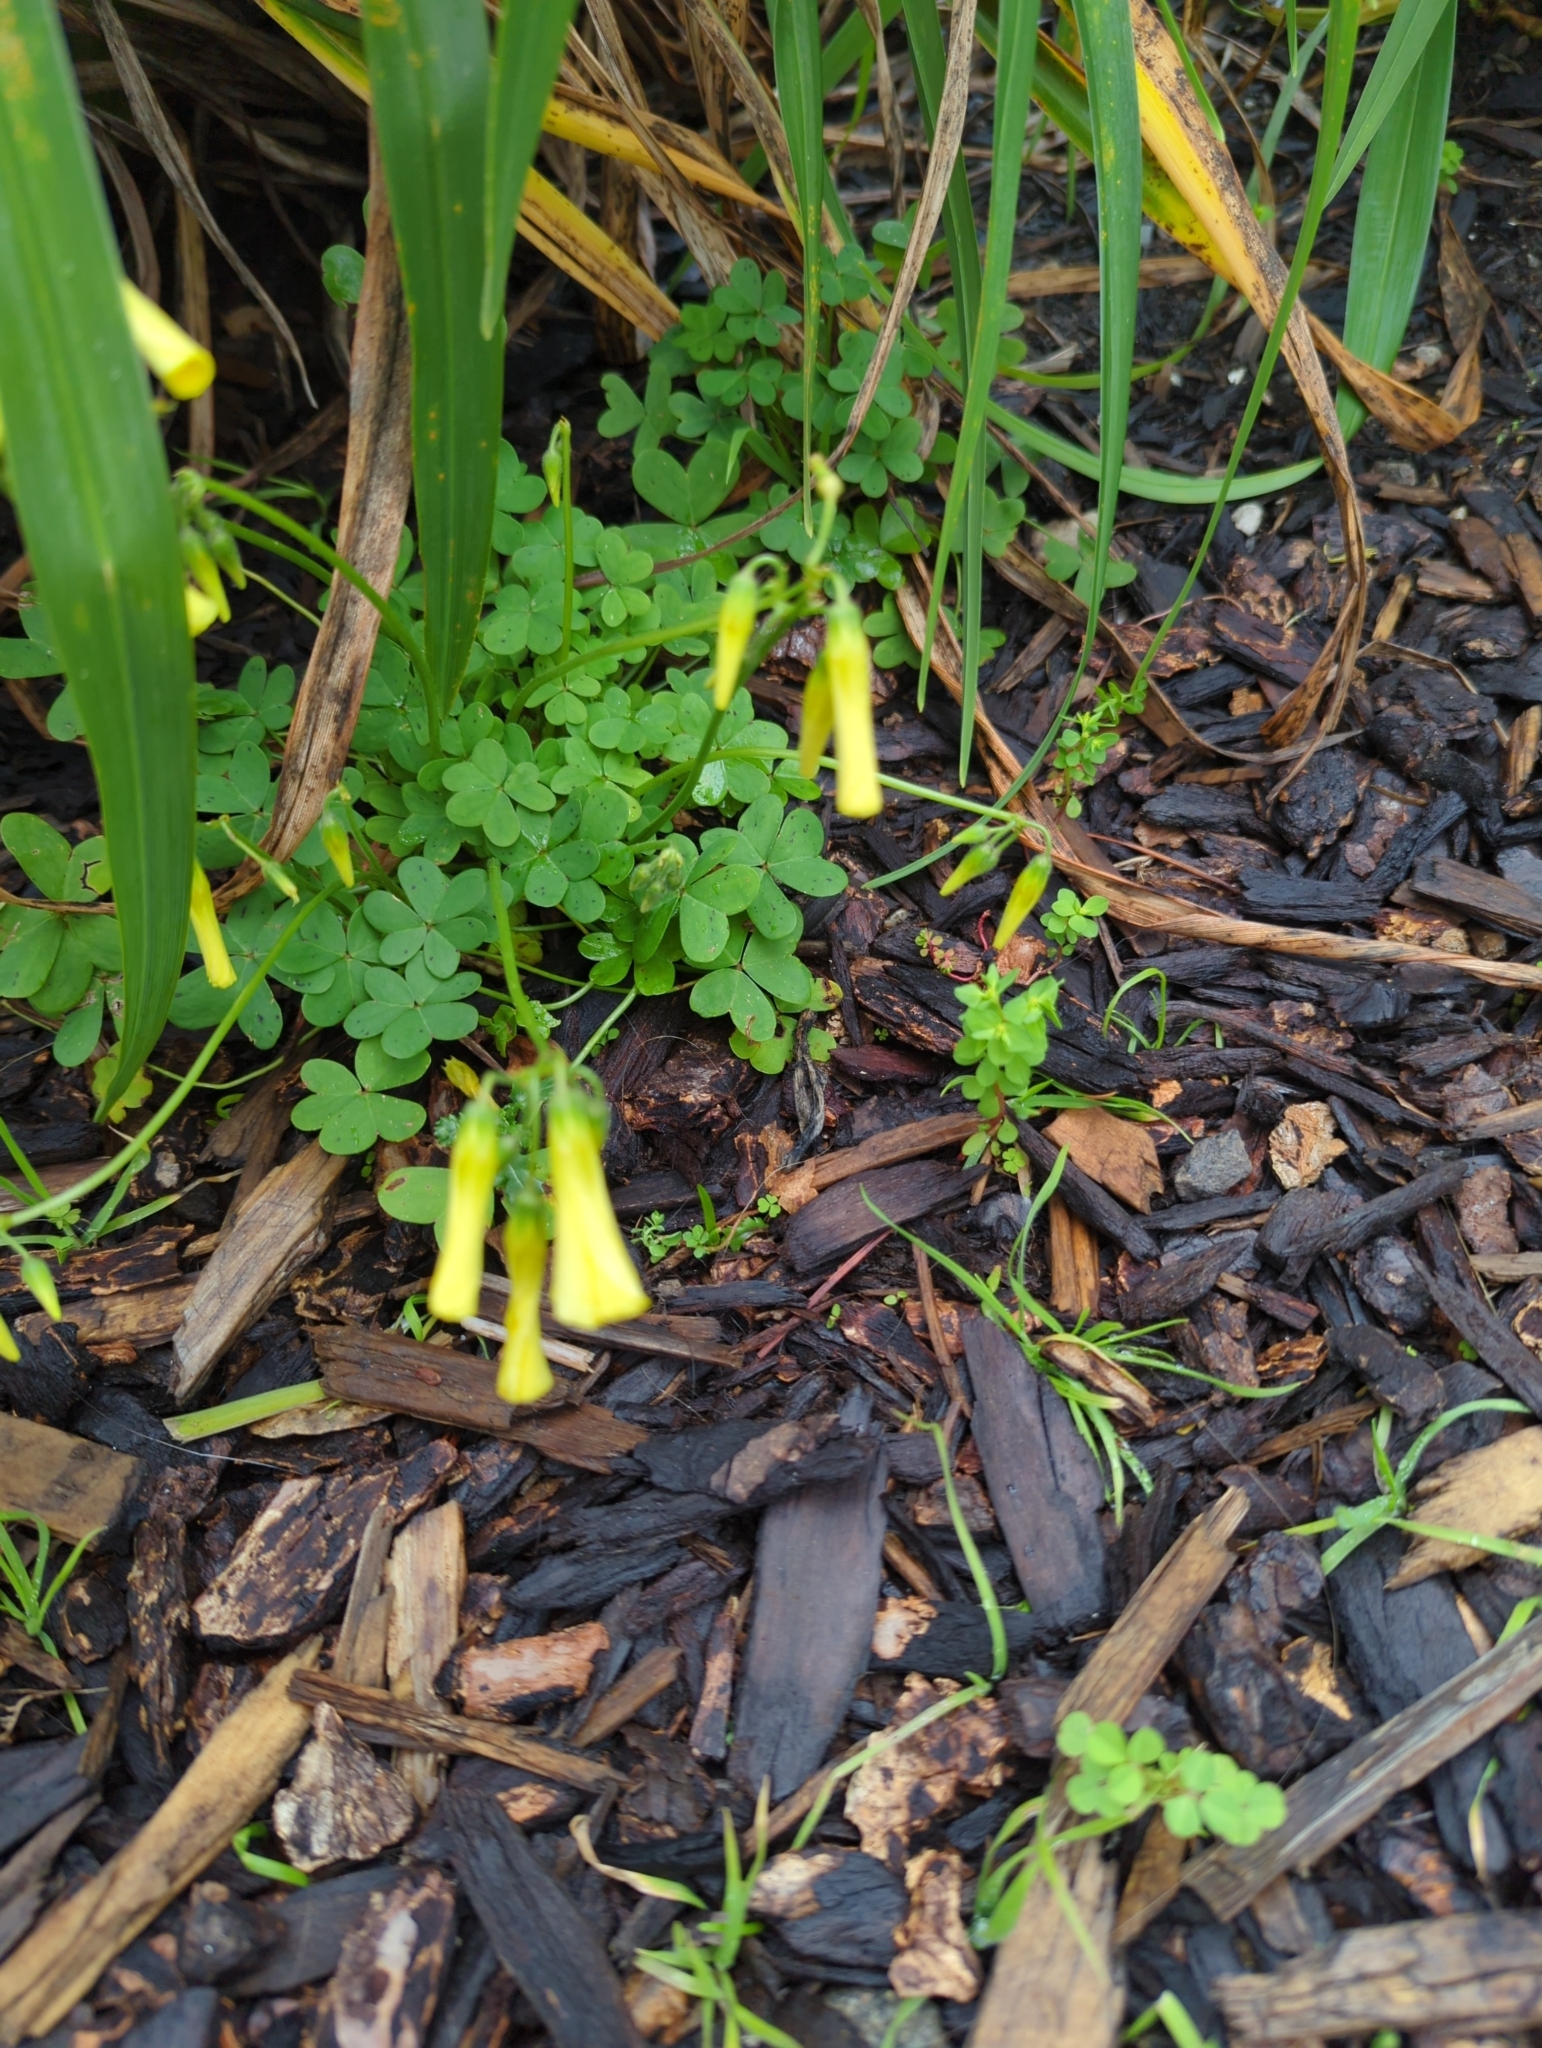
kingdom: Plantae
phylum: Tracheophyta
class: Magnoliopsida
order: Oxalidales
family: Oxalidaceae
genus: Oxalis
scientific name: Oxalis pes-caprae
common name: Bermuda-buttercup
